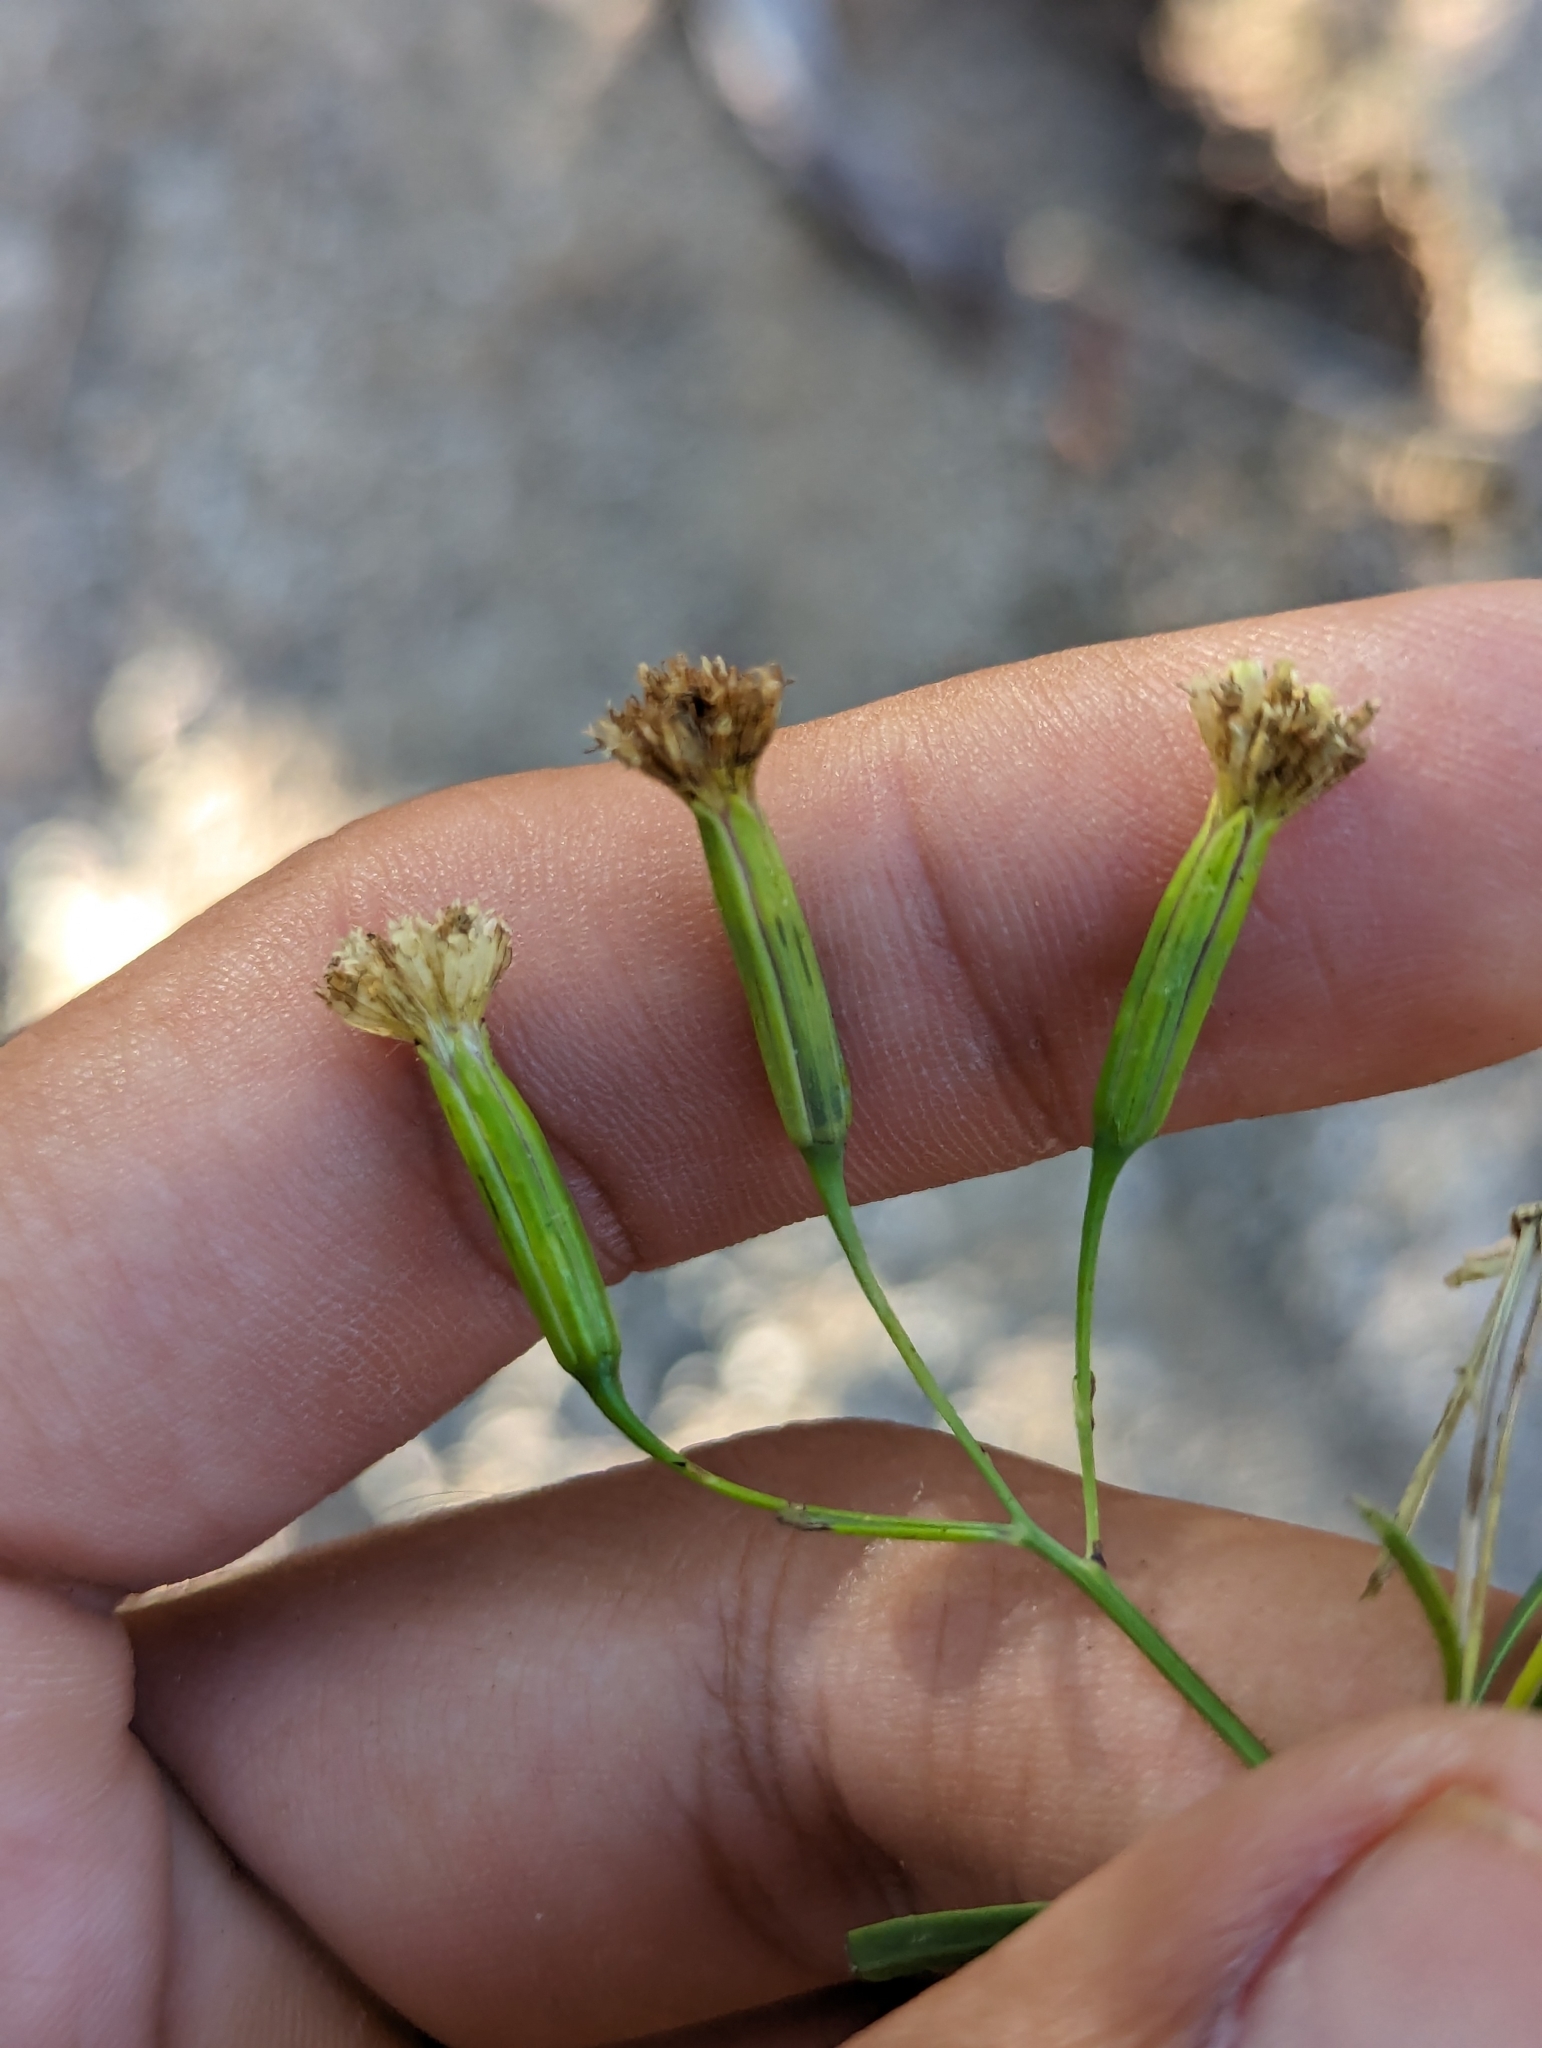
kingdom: Plantae
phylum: Tracheophyta
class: Magnoliopsida
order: Asterales
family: Asteraceae
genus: Porophyllum
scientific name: Porophyllum gracile
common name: Odora
